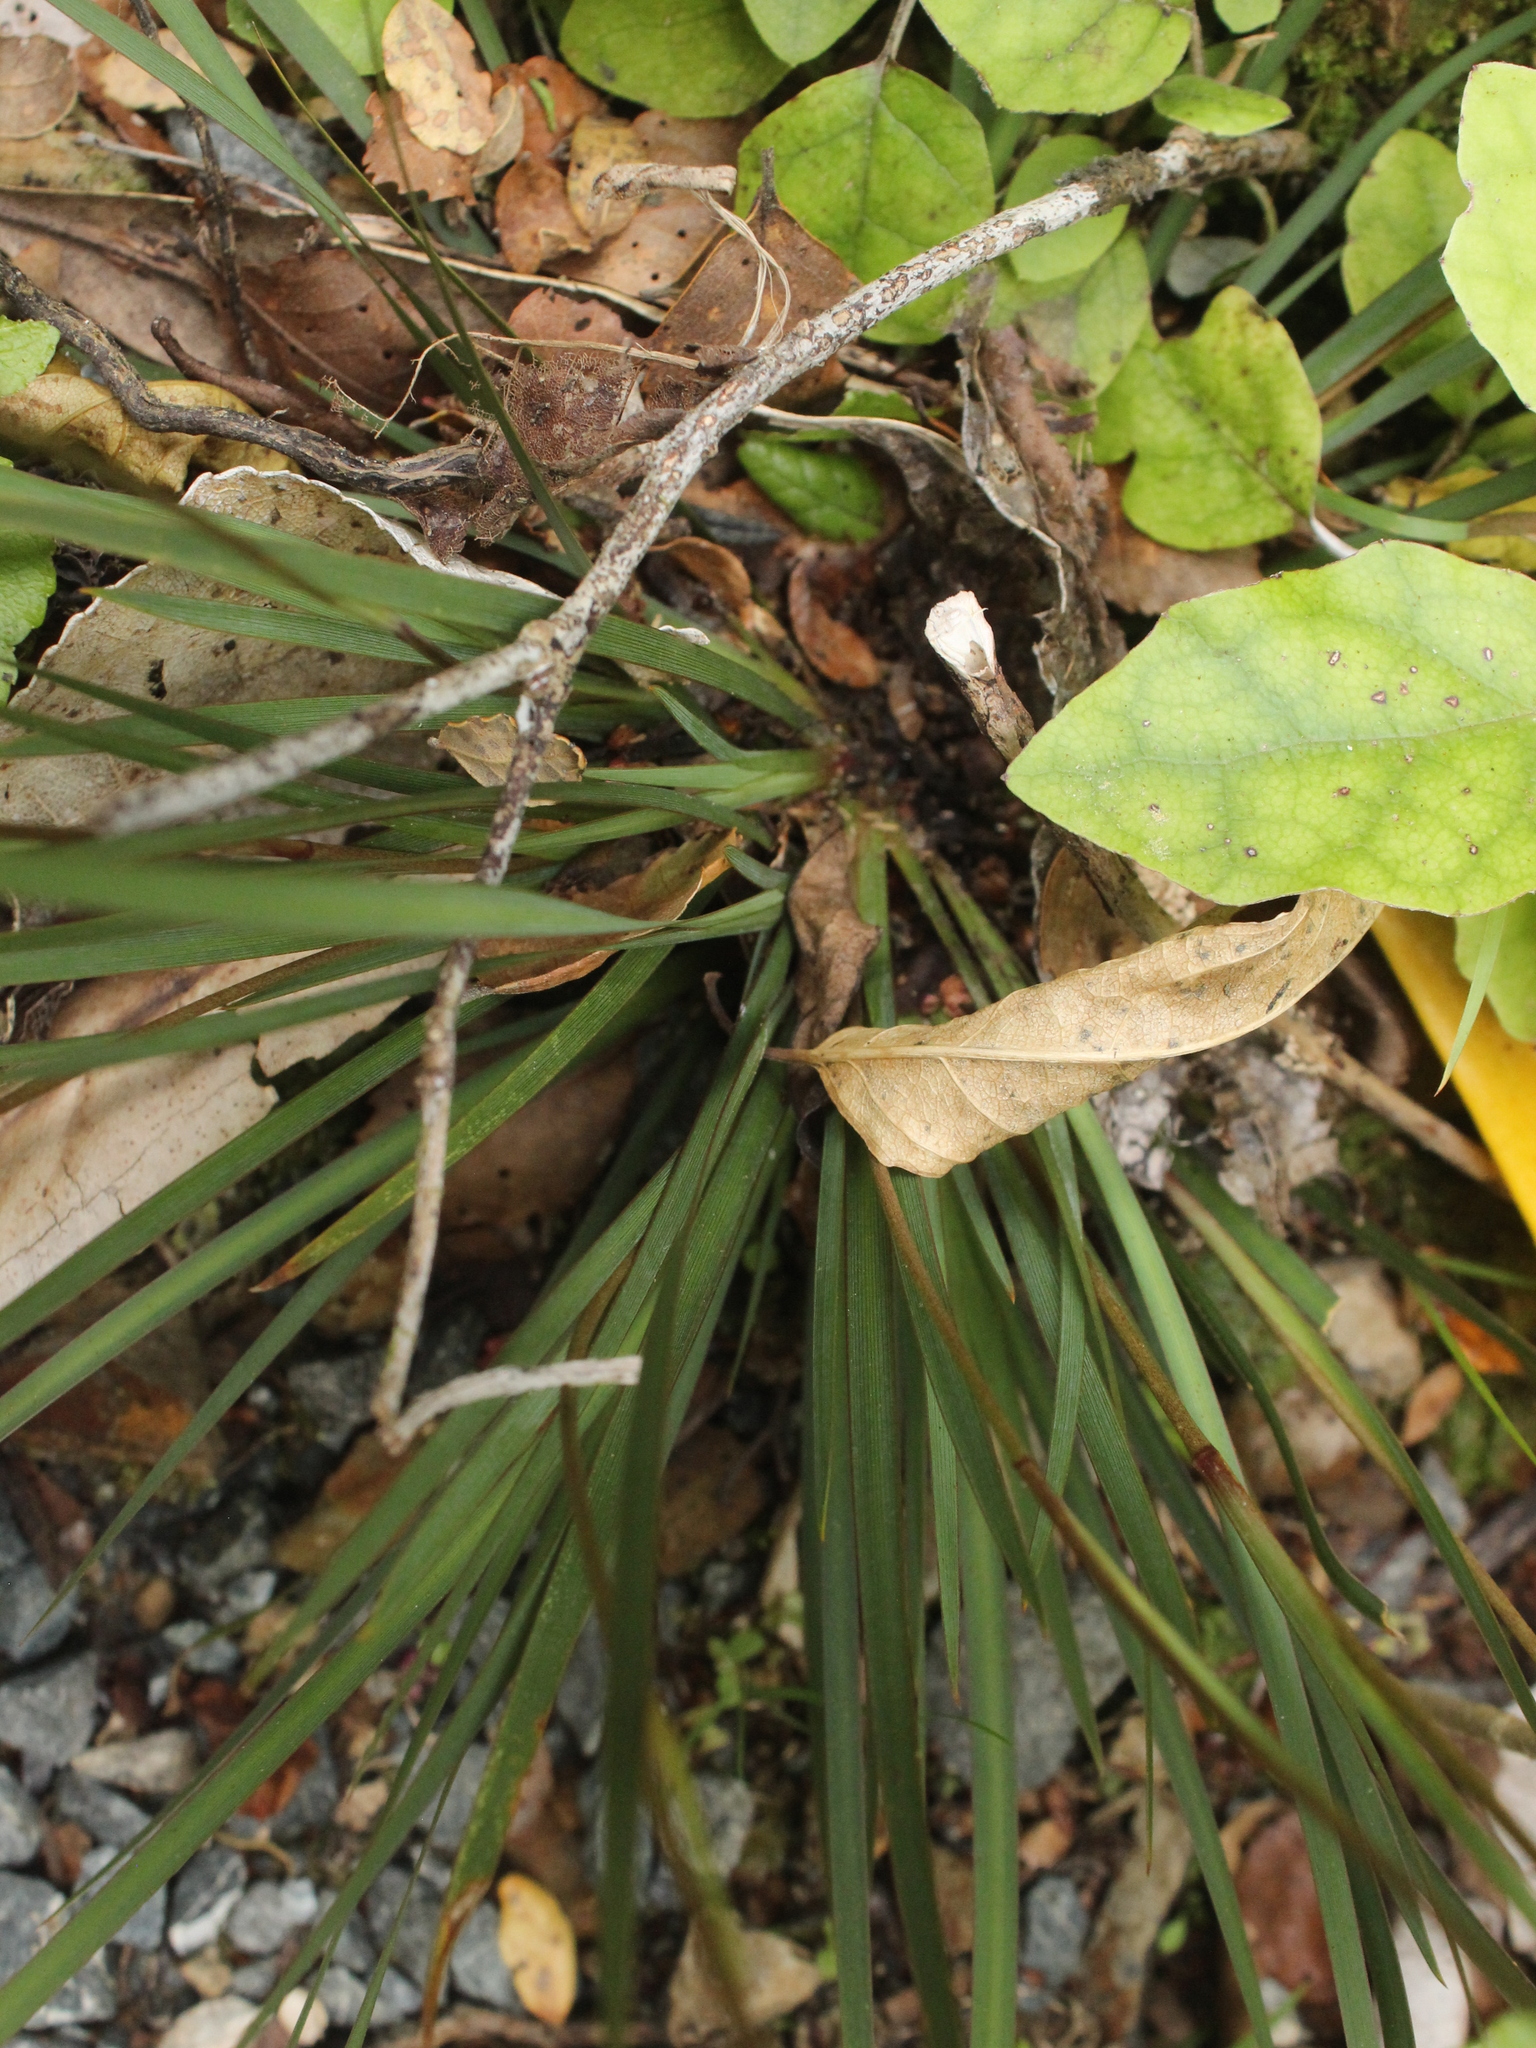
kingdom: Plantae
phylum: Tracheophyta
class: Liliopsida
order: Asparagales
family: Iridaceae
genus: Libertia
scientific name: Libertia edgariae
